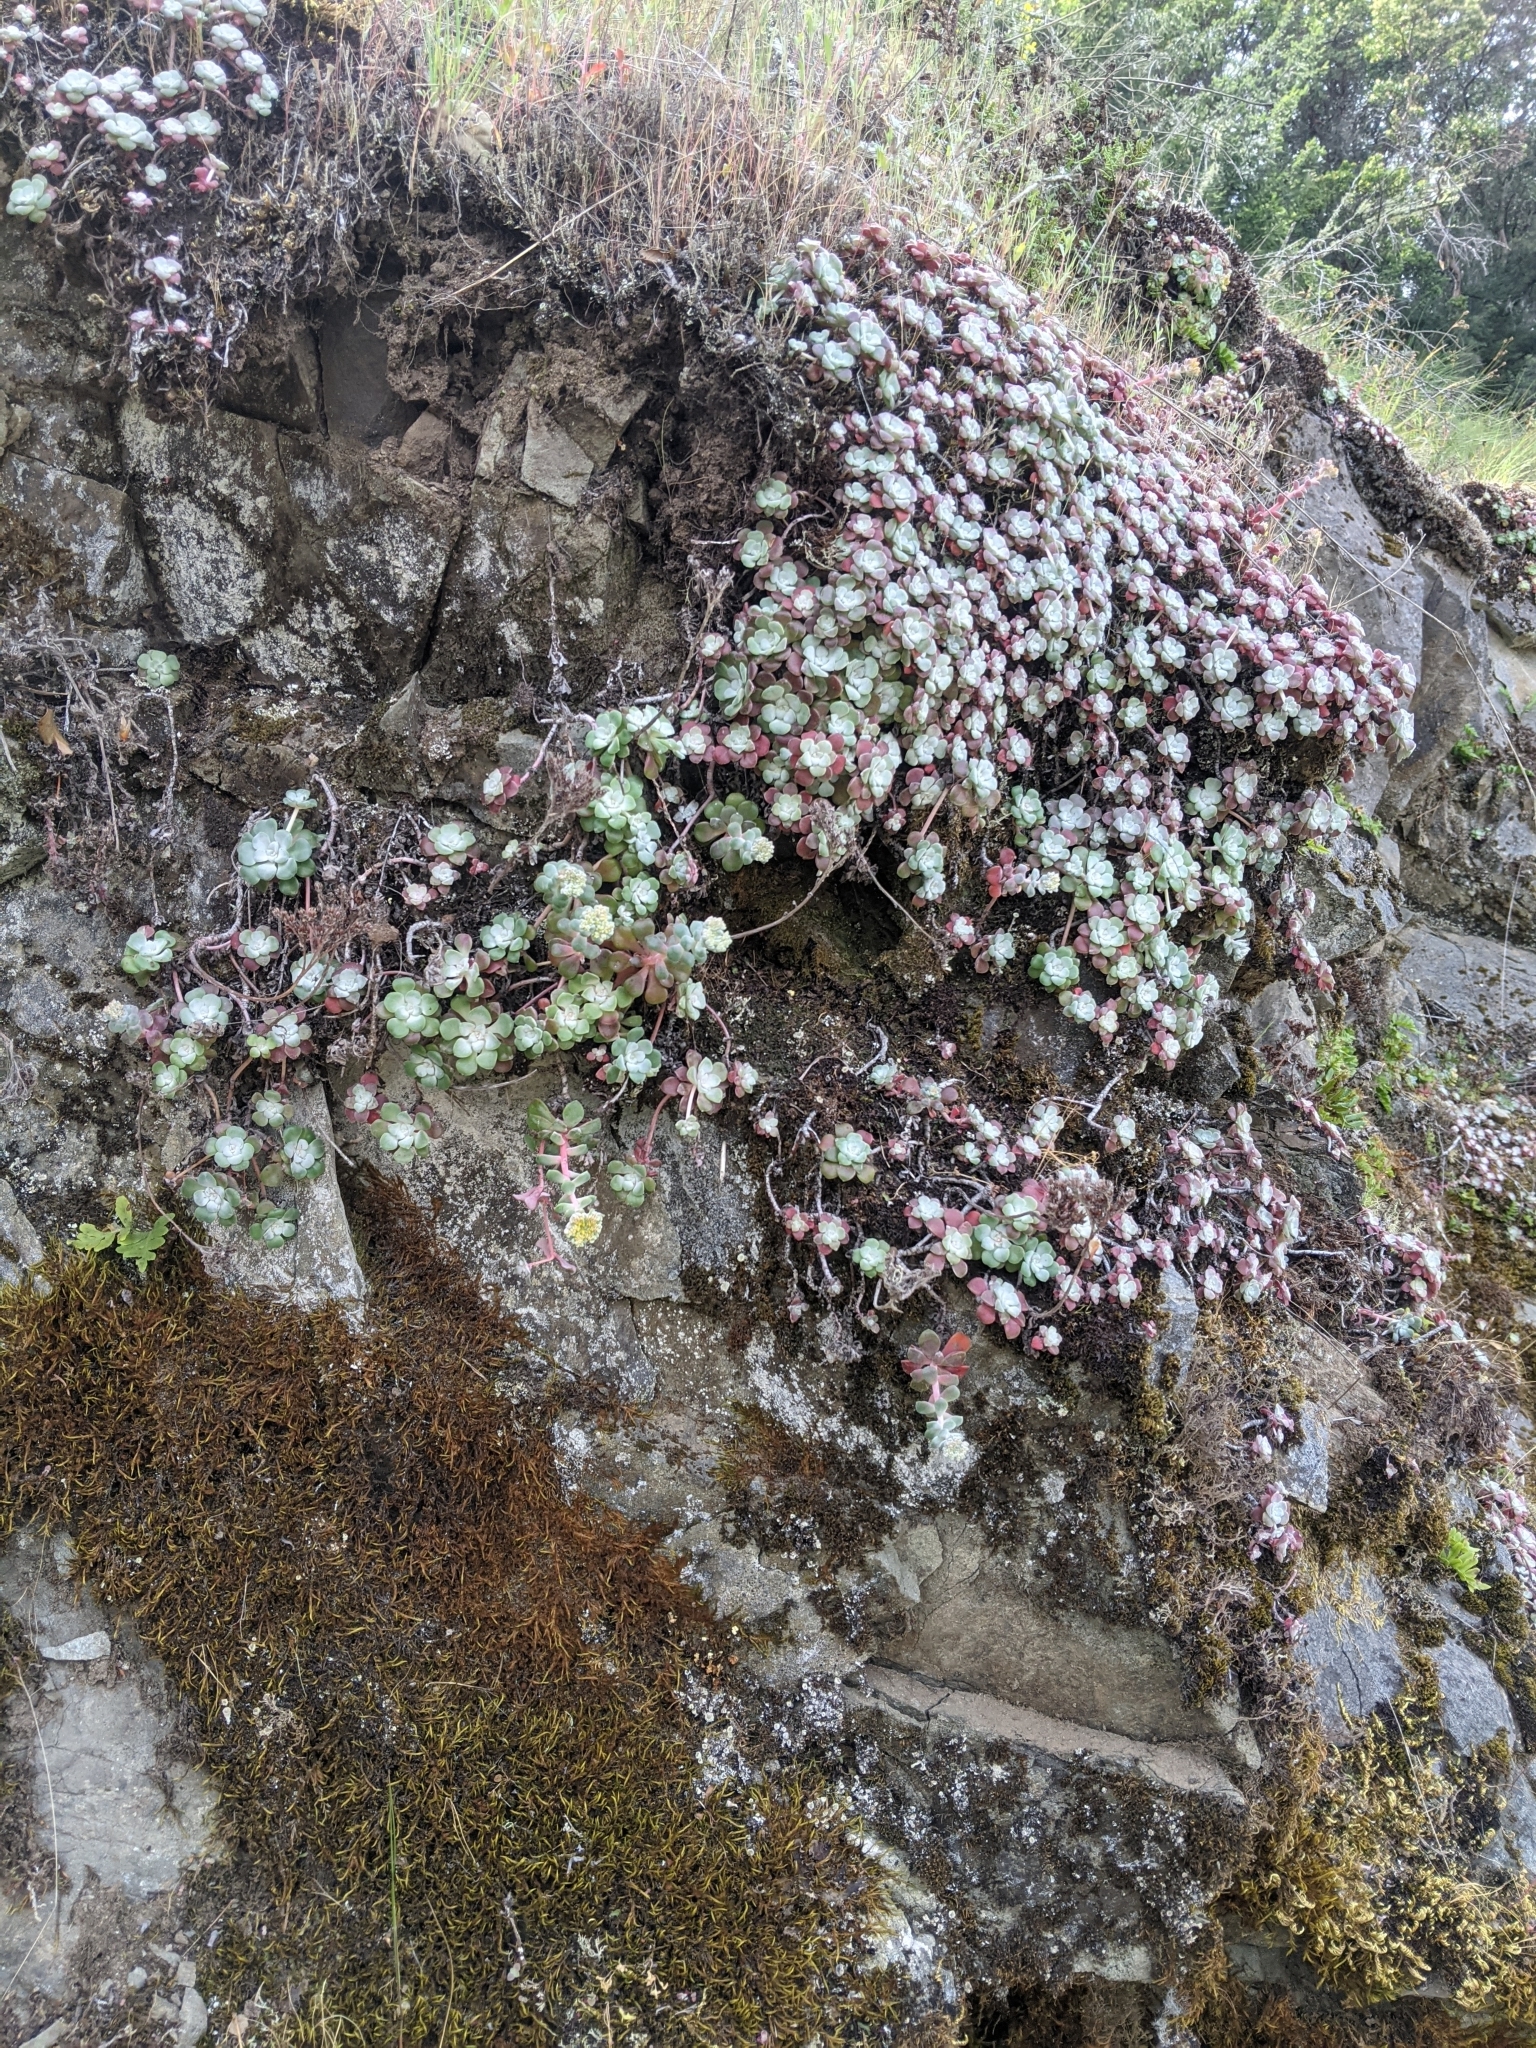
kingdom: Plantae
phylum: Tracheophyta
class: Magnoliopsida
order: Saxifragales
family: Crassulaceae
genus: Sedum
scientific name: Sedum spathulifolium
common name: Colorado stonecrop
